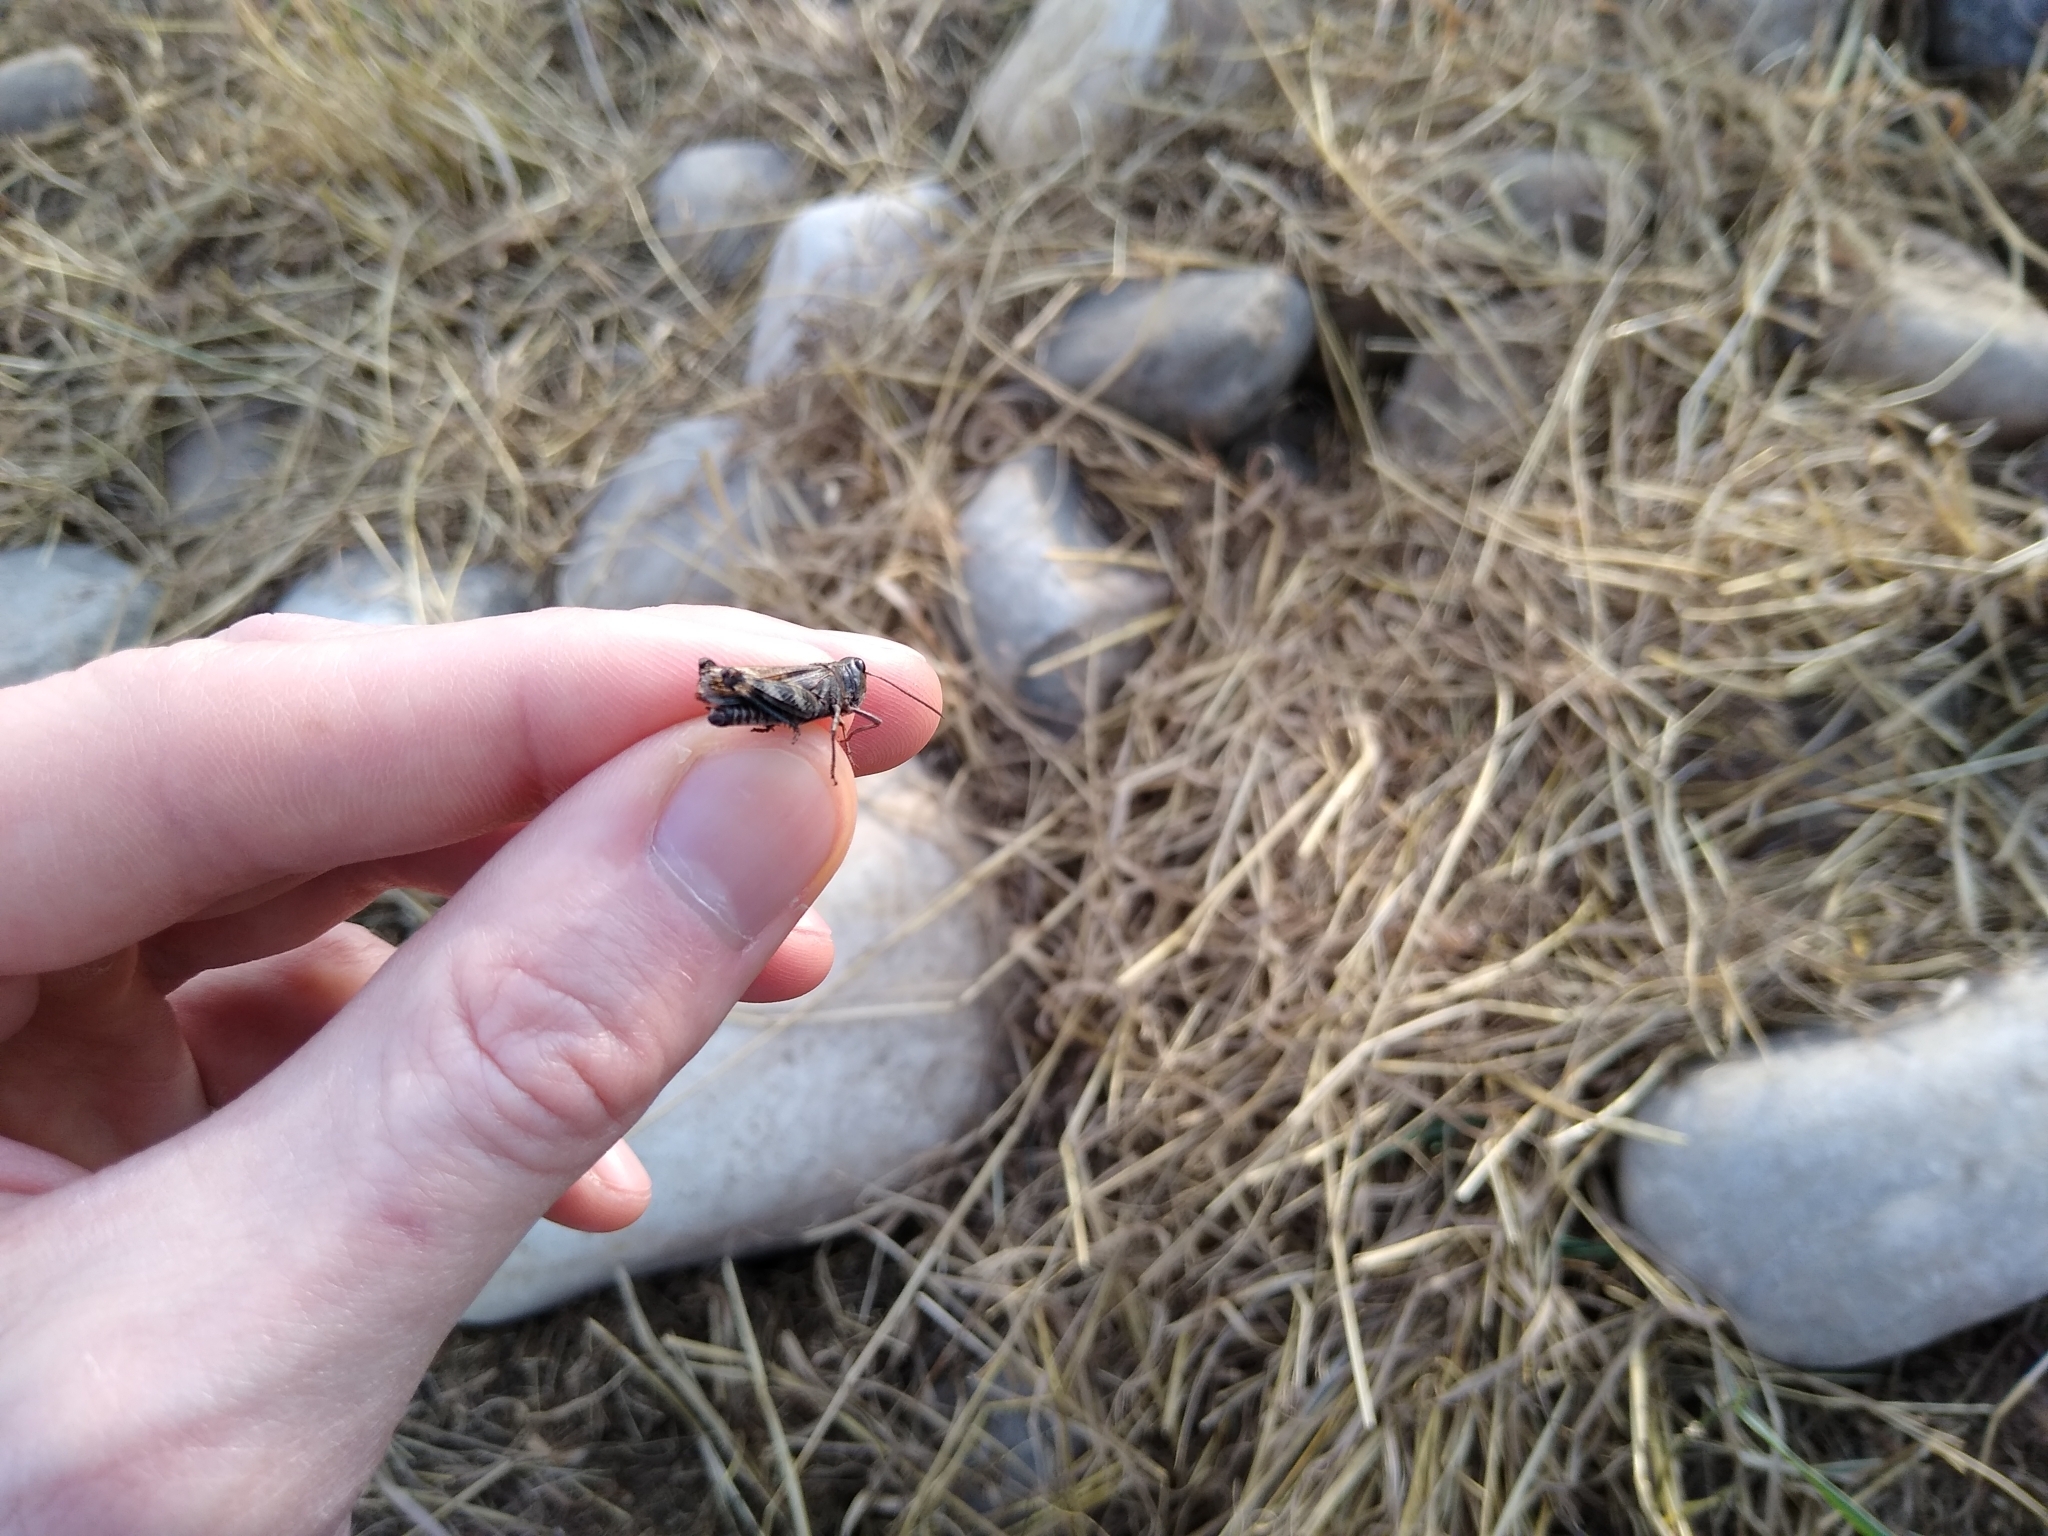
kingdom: Animalia
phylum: Arthropoda
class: Insecta
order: Orthoptera
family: Acrididae
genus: Encoptolophus
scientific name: Encoptolophus costalis
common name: Dusky grasshopper
